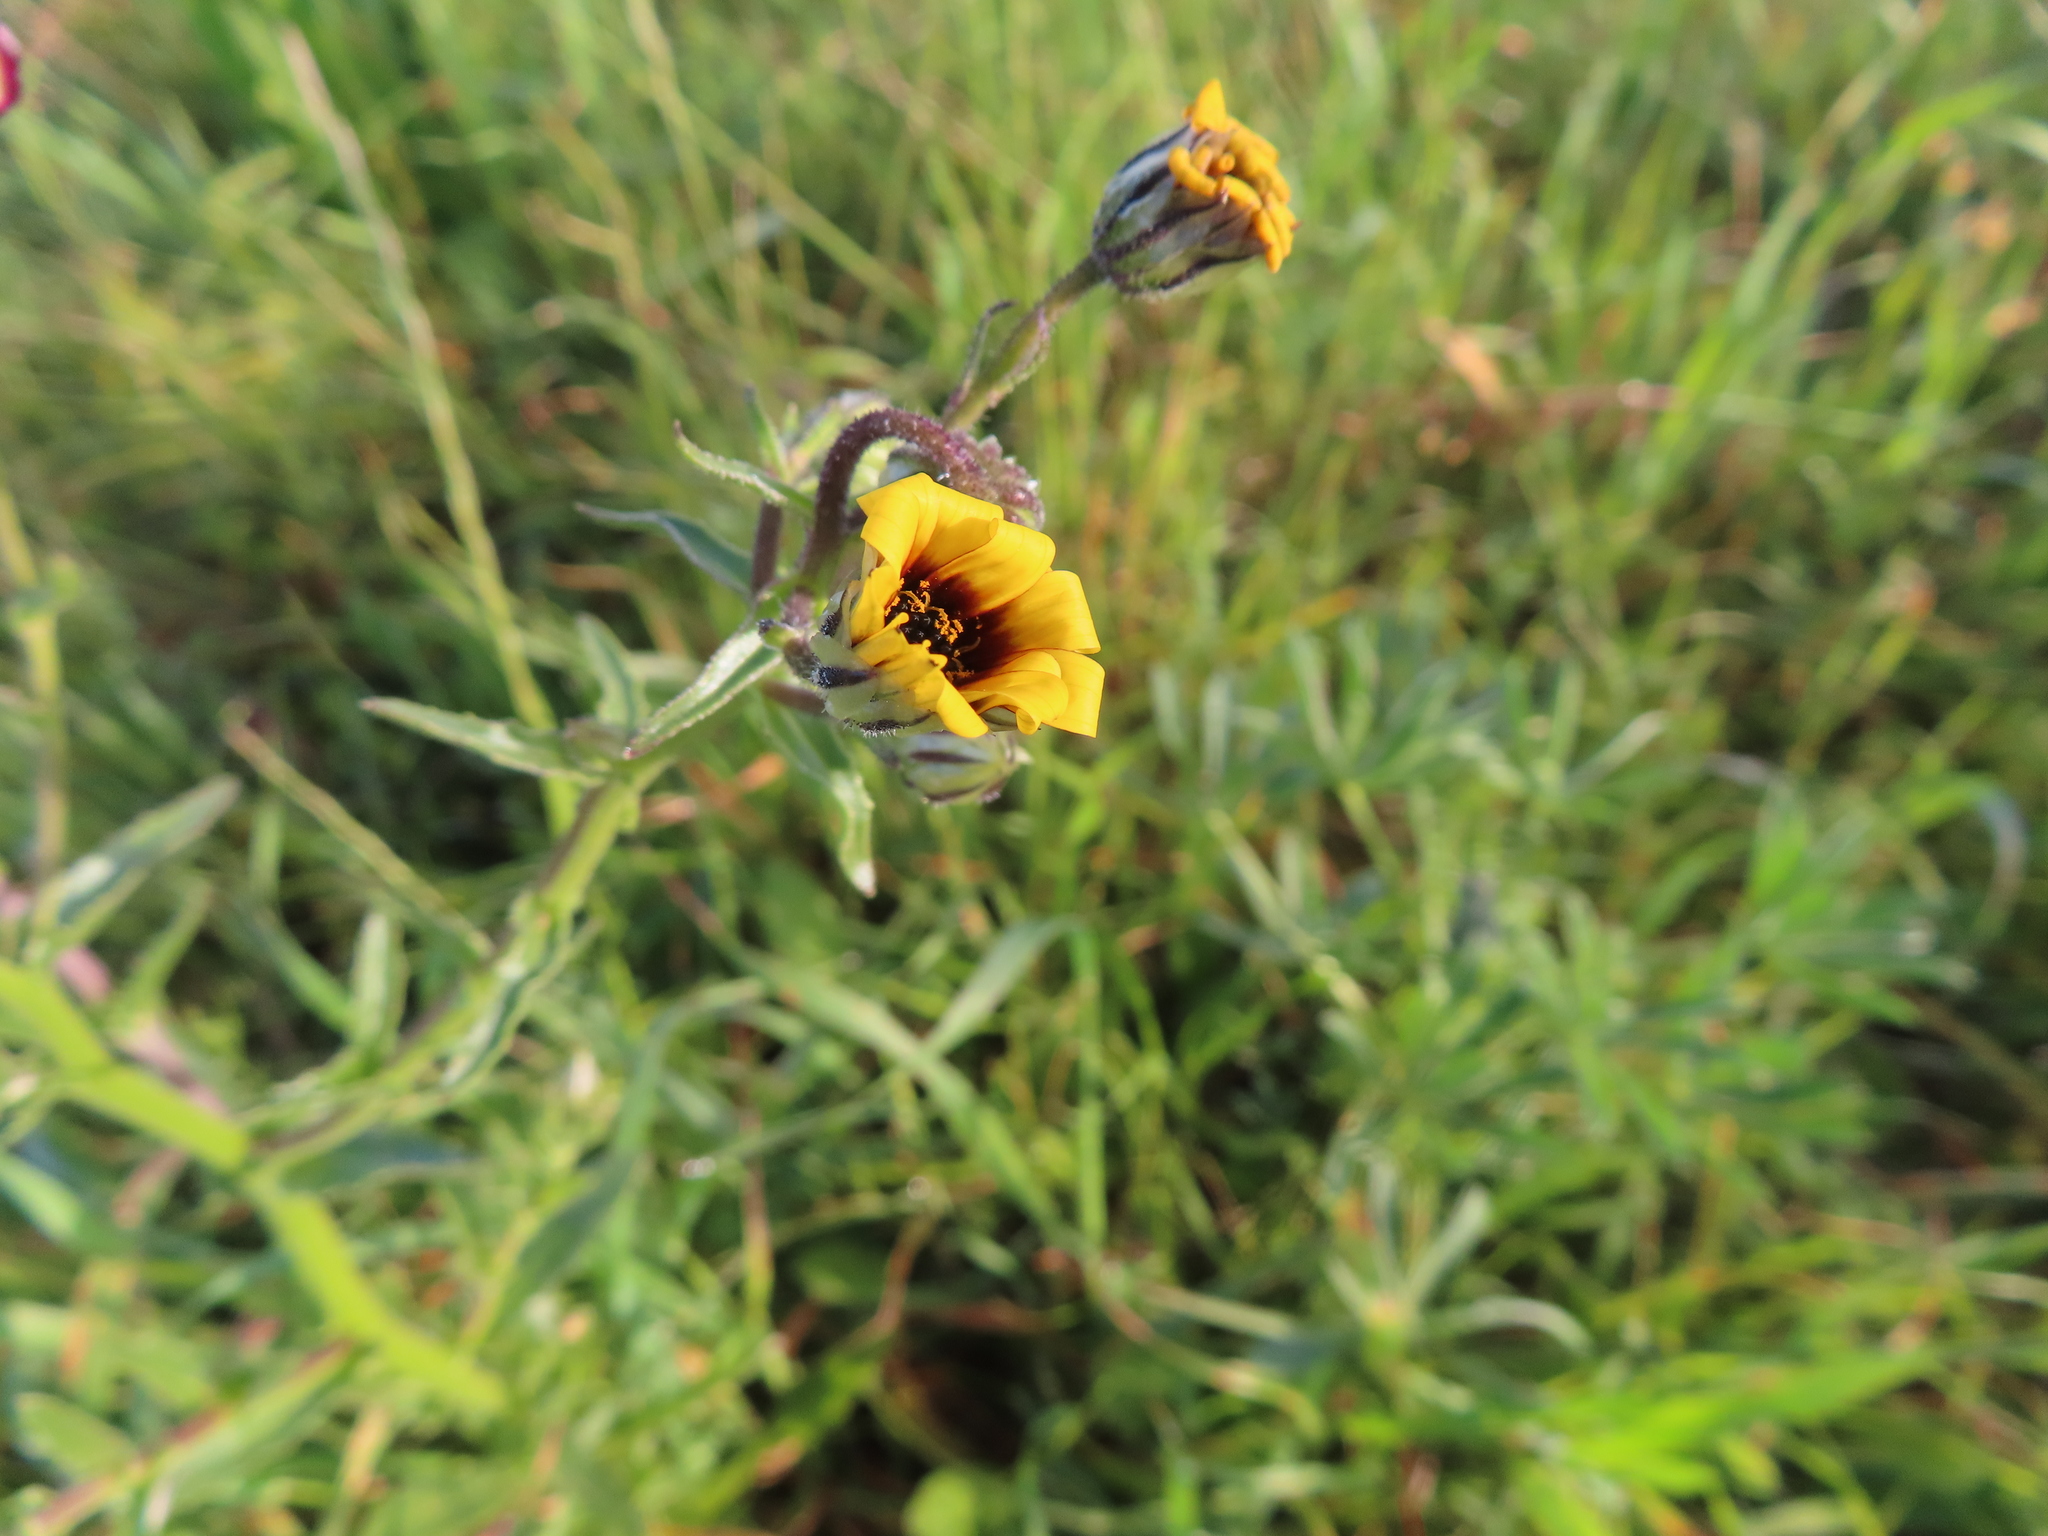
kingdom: Plantae
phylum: Tracheophyta
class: Magnoliopsida
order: Asterales
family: Asteraceae
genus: Osteospermum
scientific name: Osteospermum monstrosum
